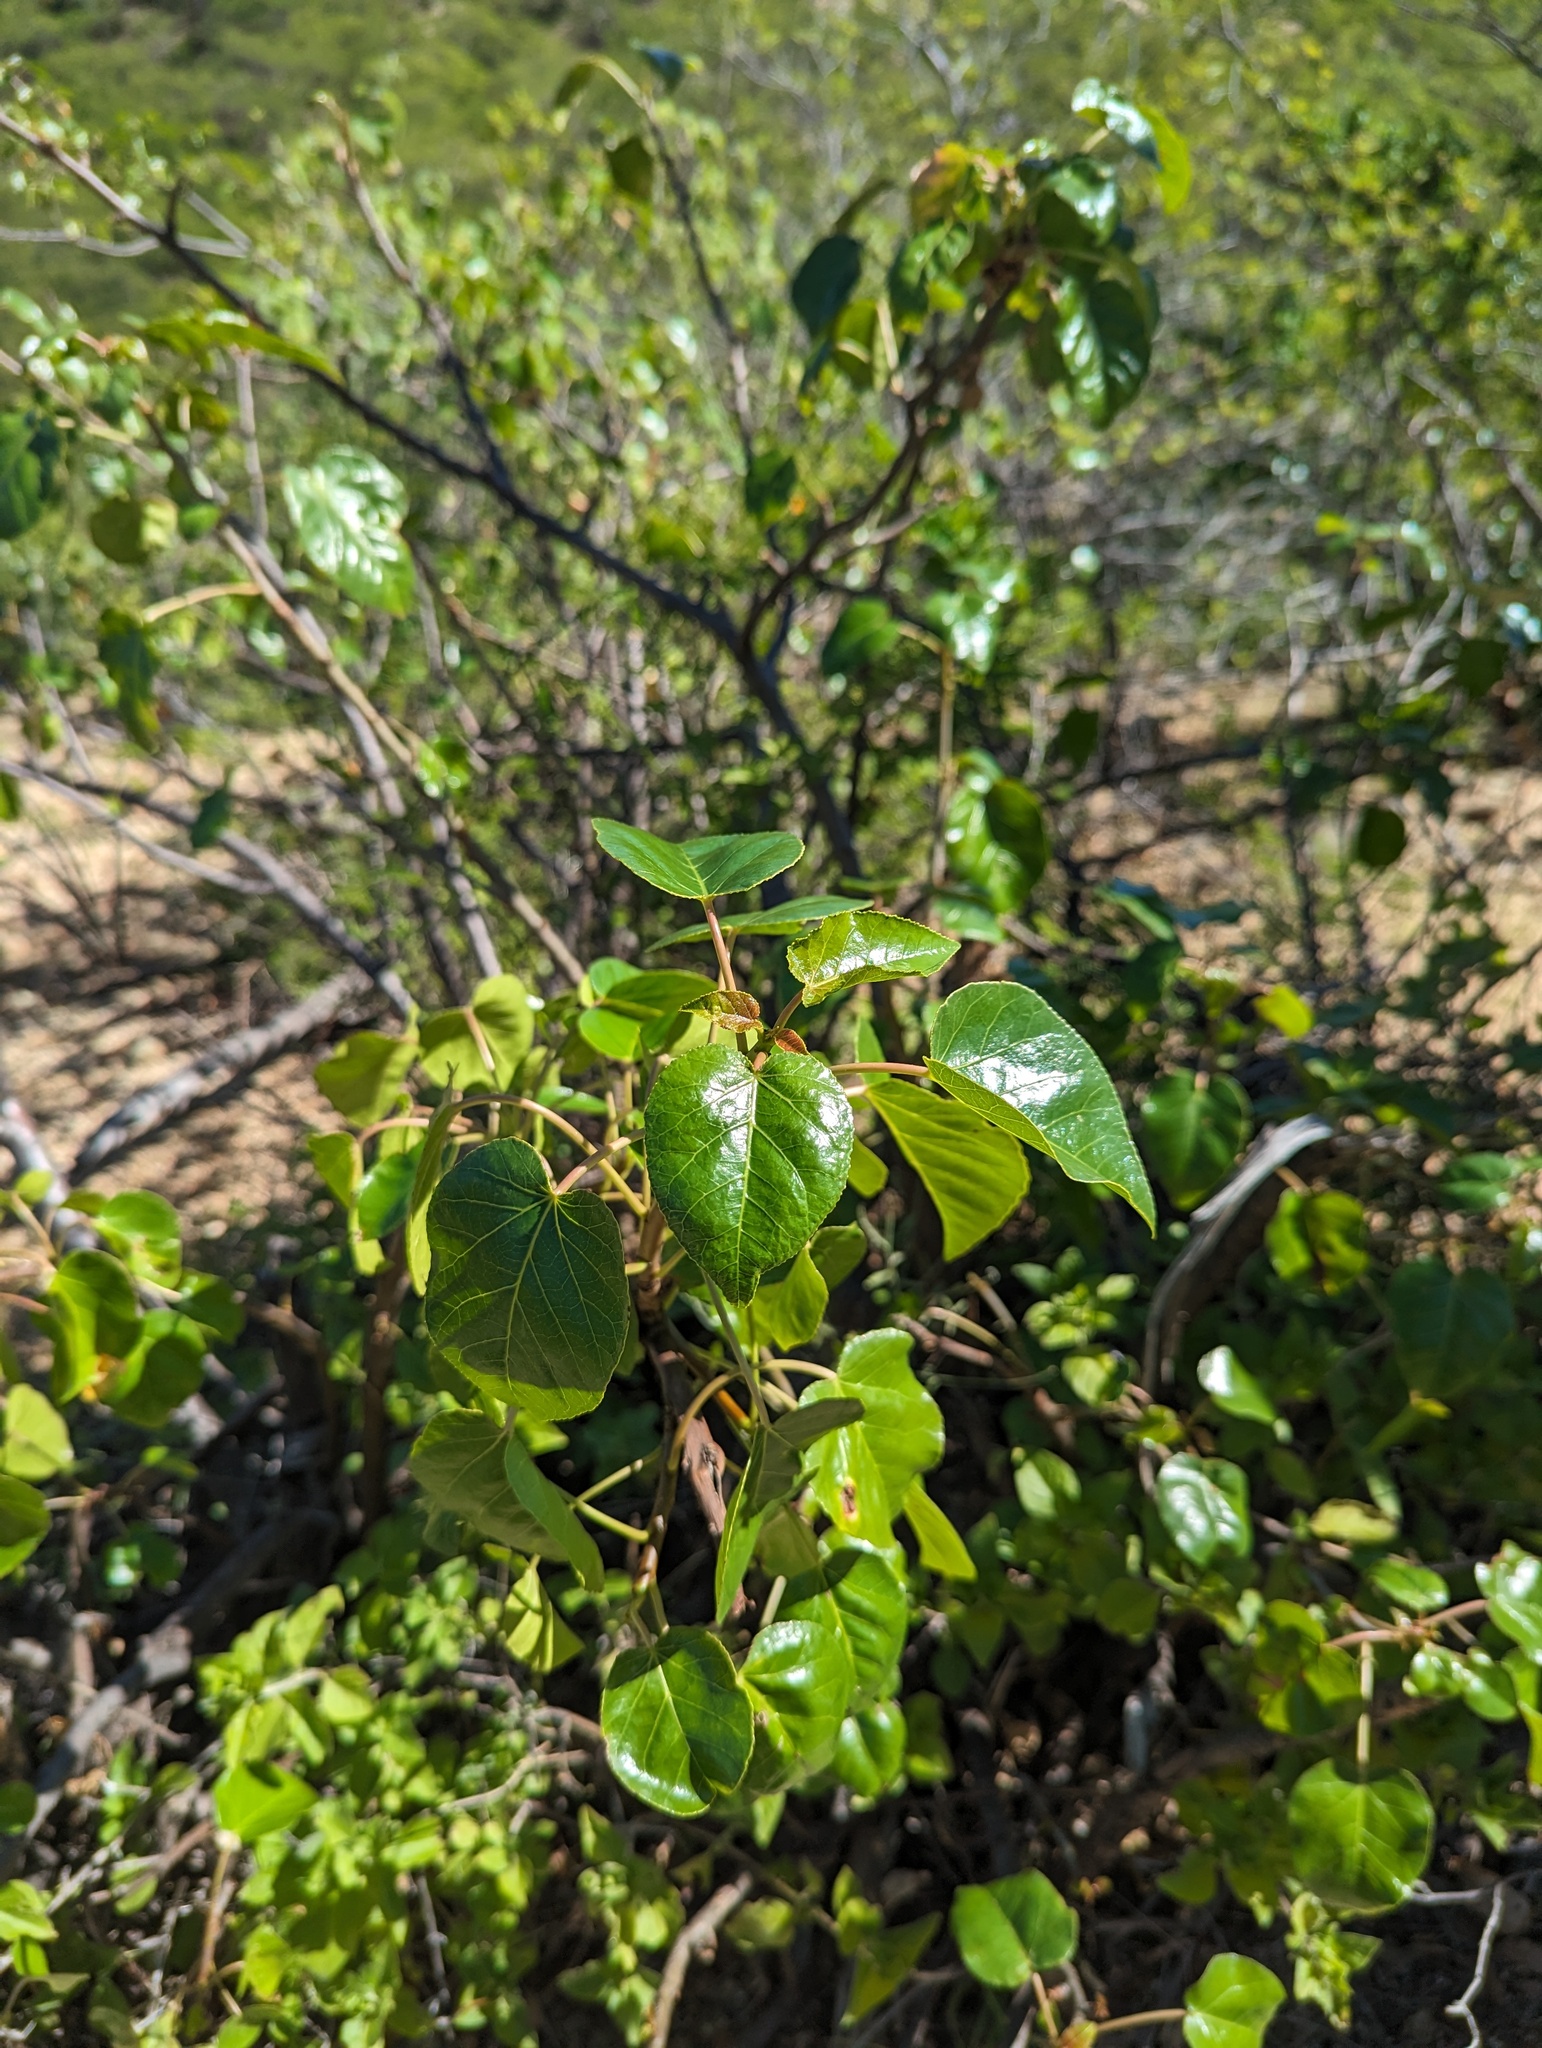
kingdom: Plantae
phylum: Tracheophyta
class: Magnoliopsida
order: Malpighiales
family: Euphorbiaceae
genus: Jatropha
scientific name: Jatropha vernicosa
